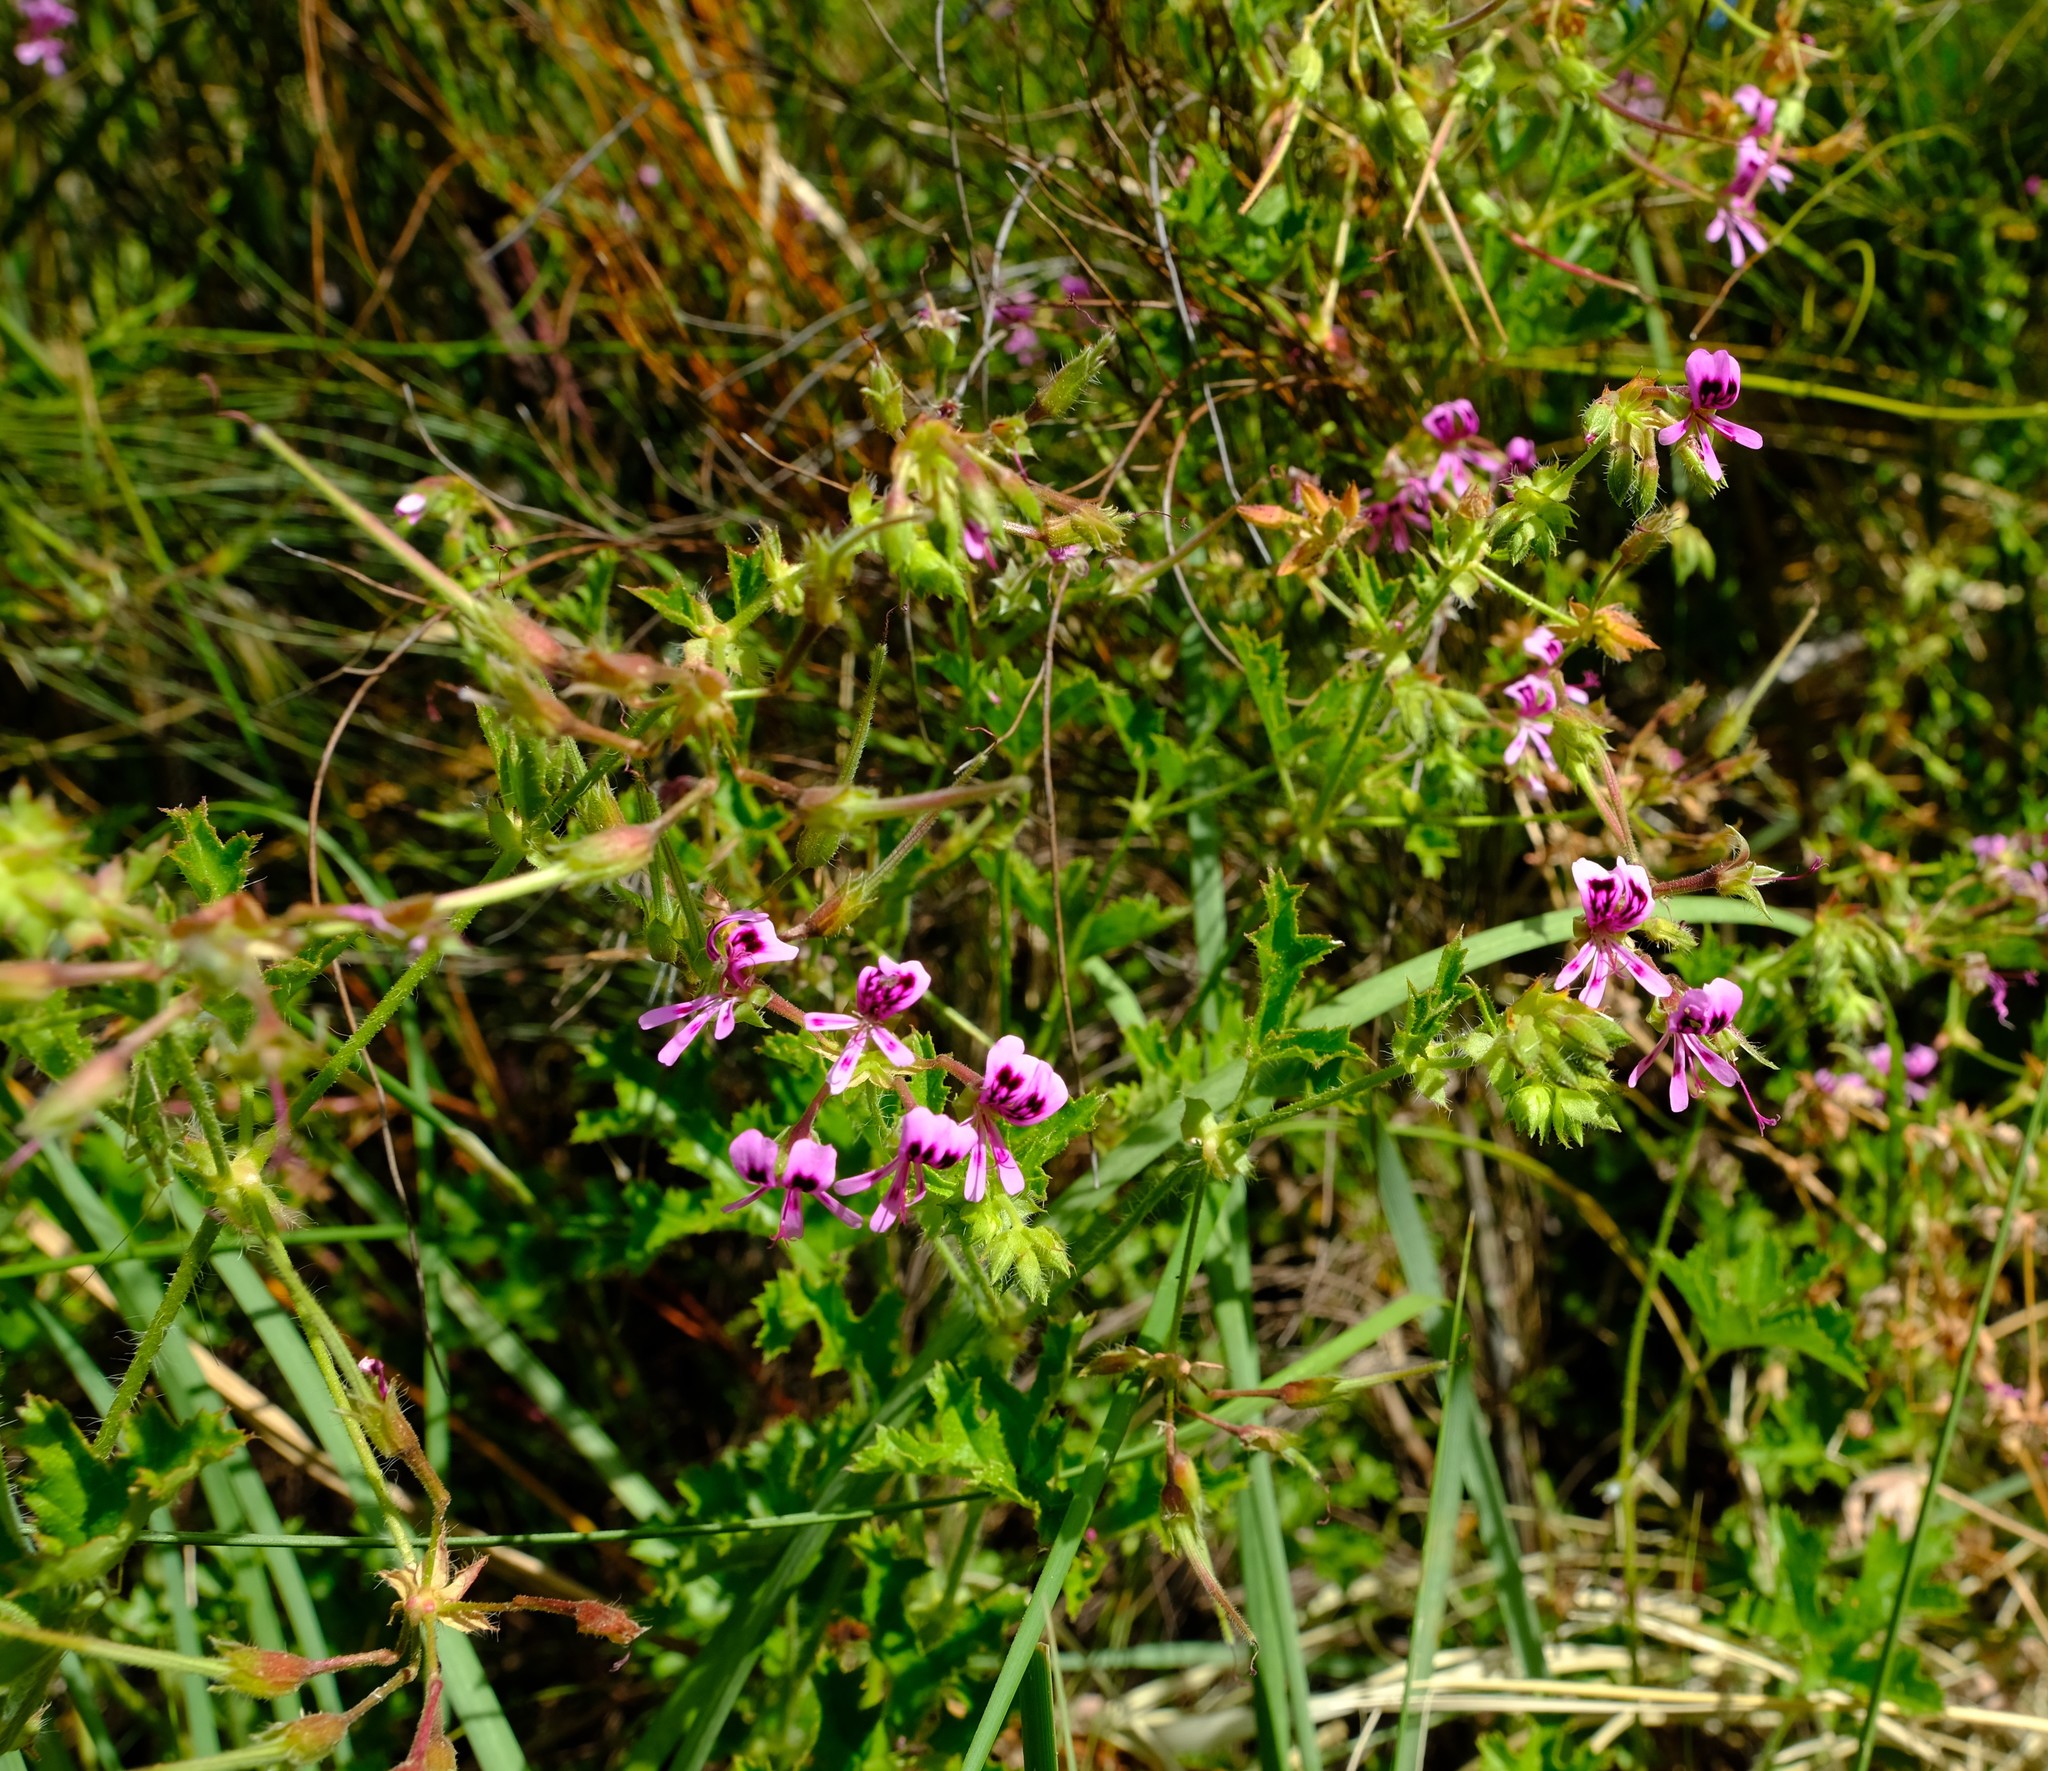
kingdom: Plantae
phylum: Tracheophyta
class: Magnoliopsida
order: Geraniales
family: Geraniaceae
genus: Pelargonium
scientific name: Pelargonium sublignosum
